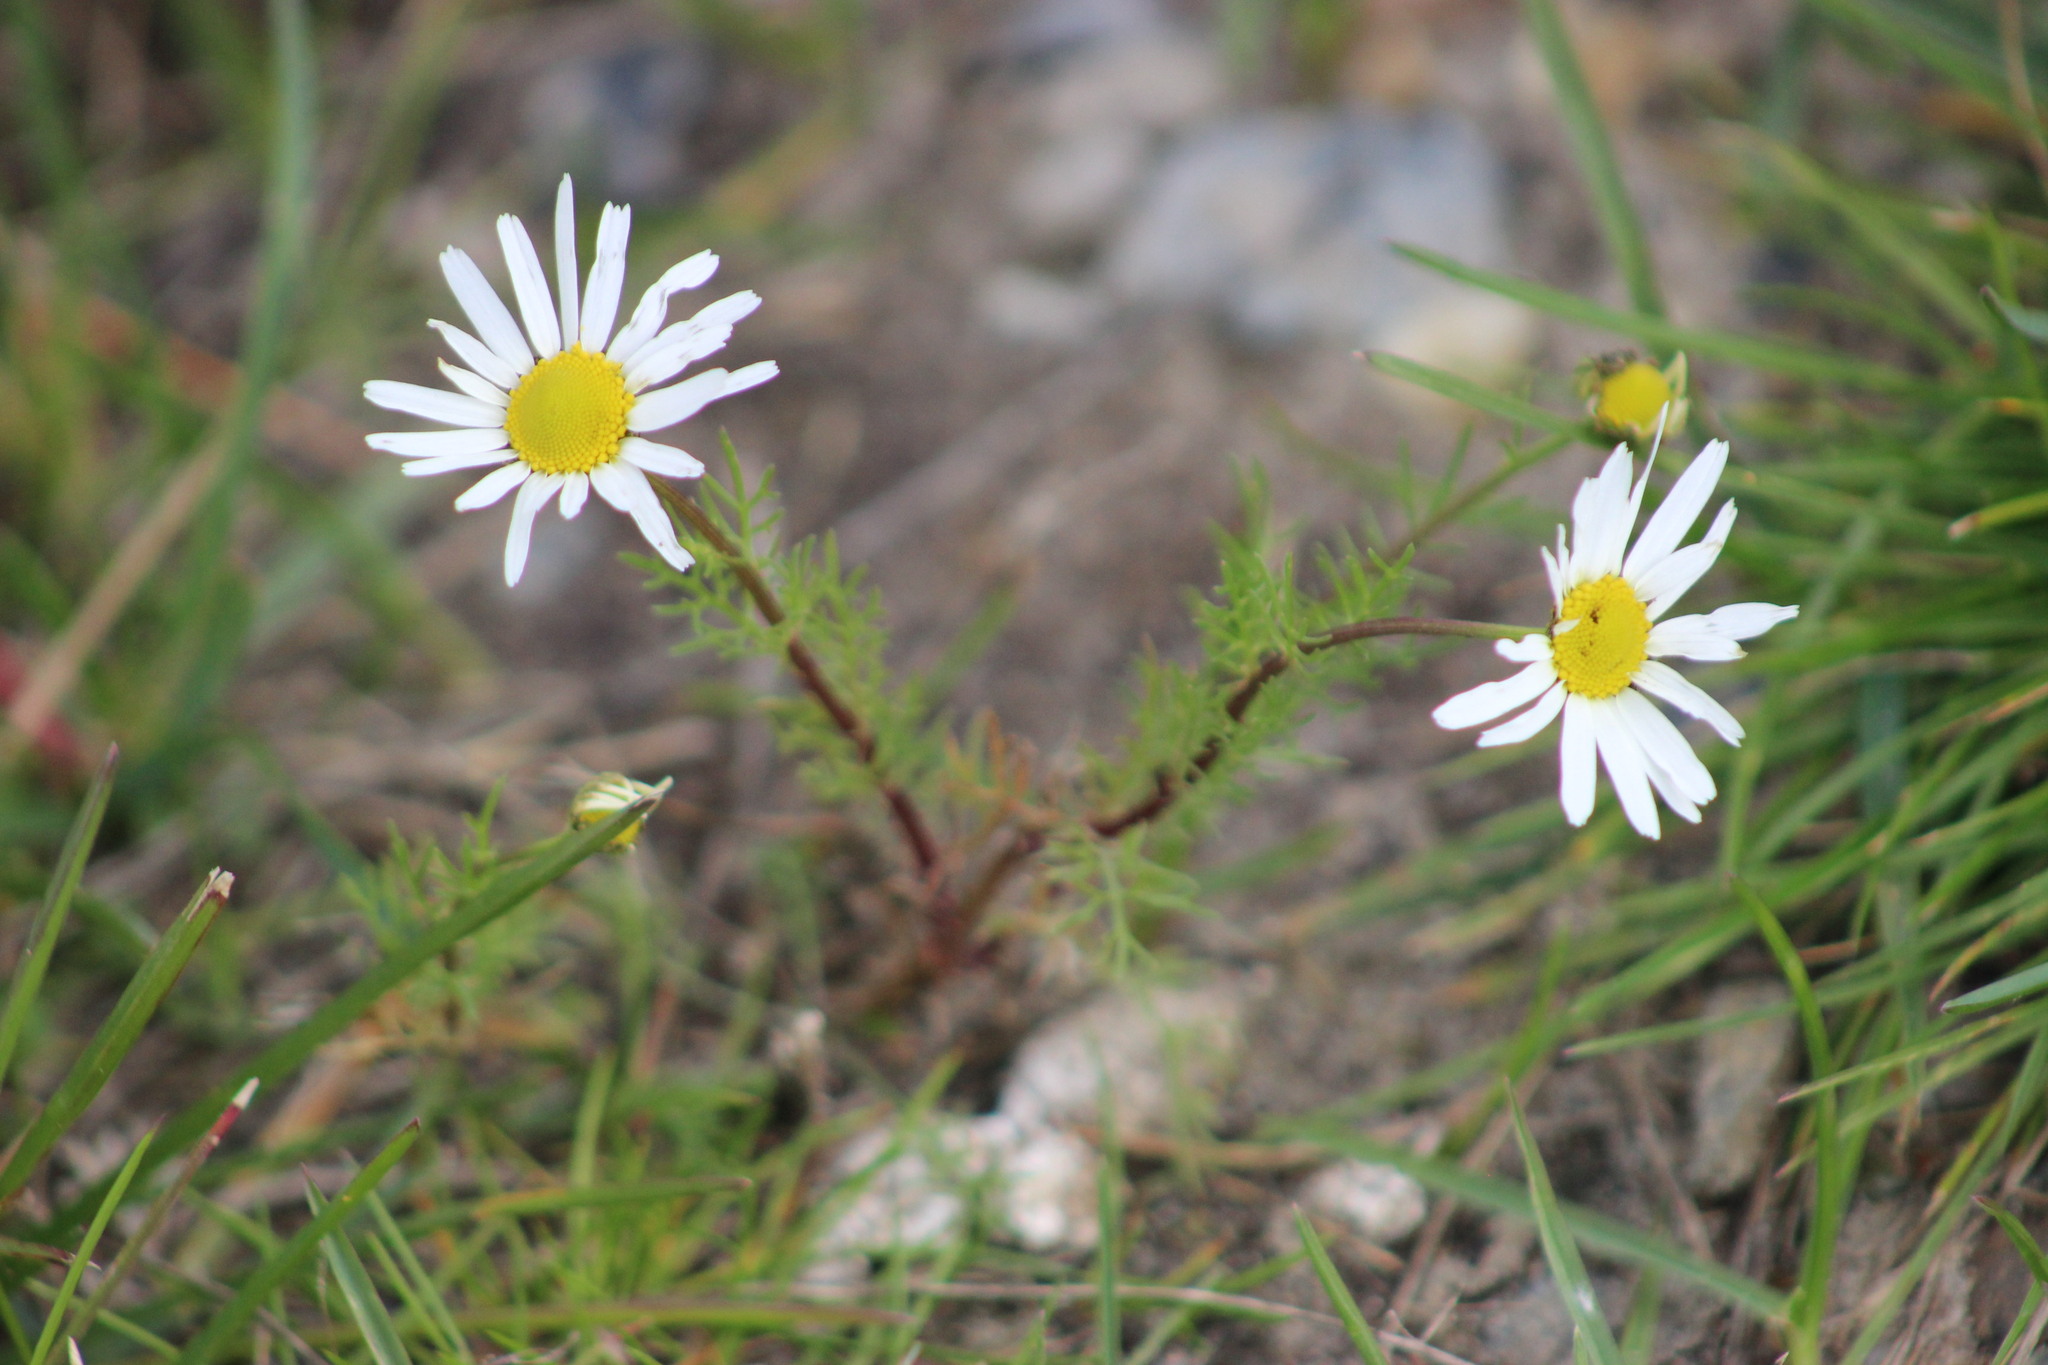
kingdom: Plantae
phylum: Tracheophyta
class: Magnoliopsida
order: Asterales
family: Asteraceae
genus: Tripleurospermum
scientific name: Tripleurospermum inodorum
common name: Scentless mayweed
